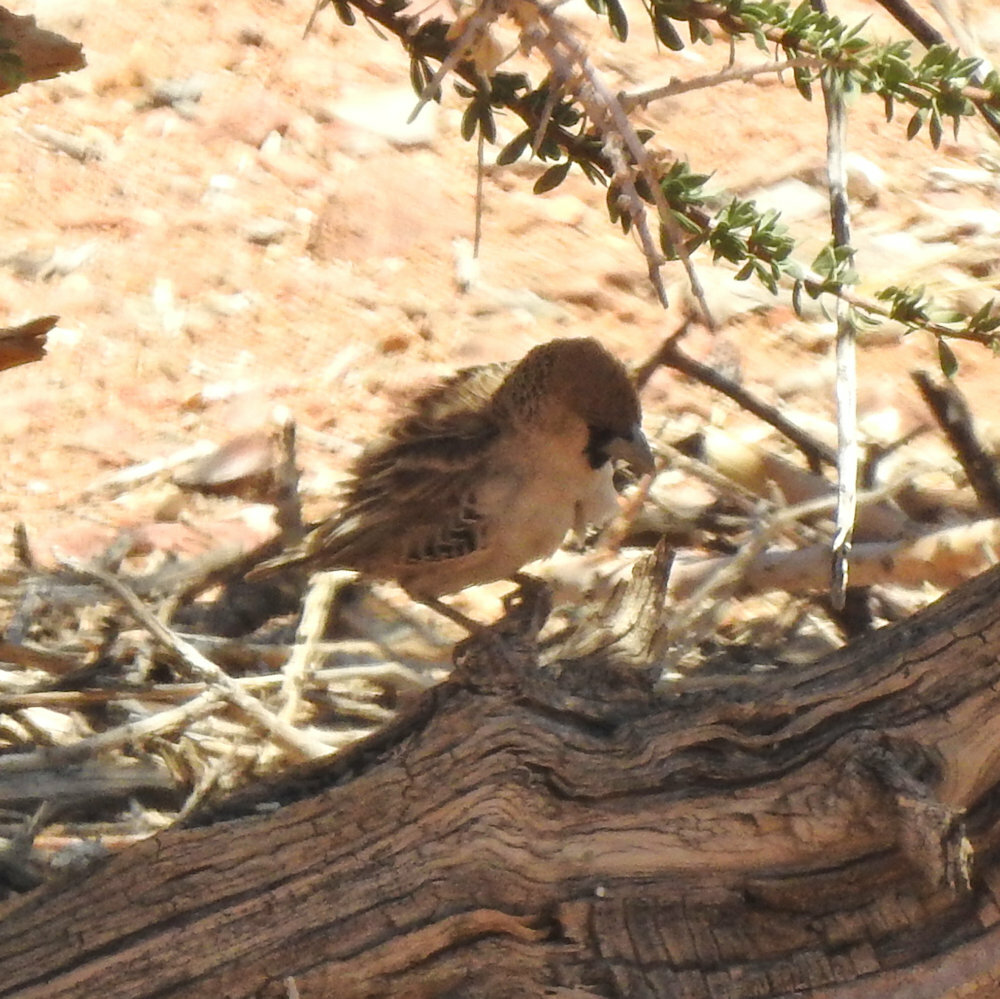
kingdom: Animalia
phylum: Chordata
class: Aves
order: Passeriformes
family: Passeridae
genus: Philetairus
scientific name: Philetairus socius
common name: Sociable weaver
